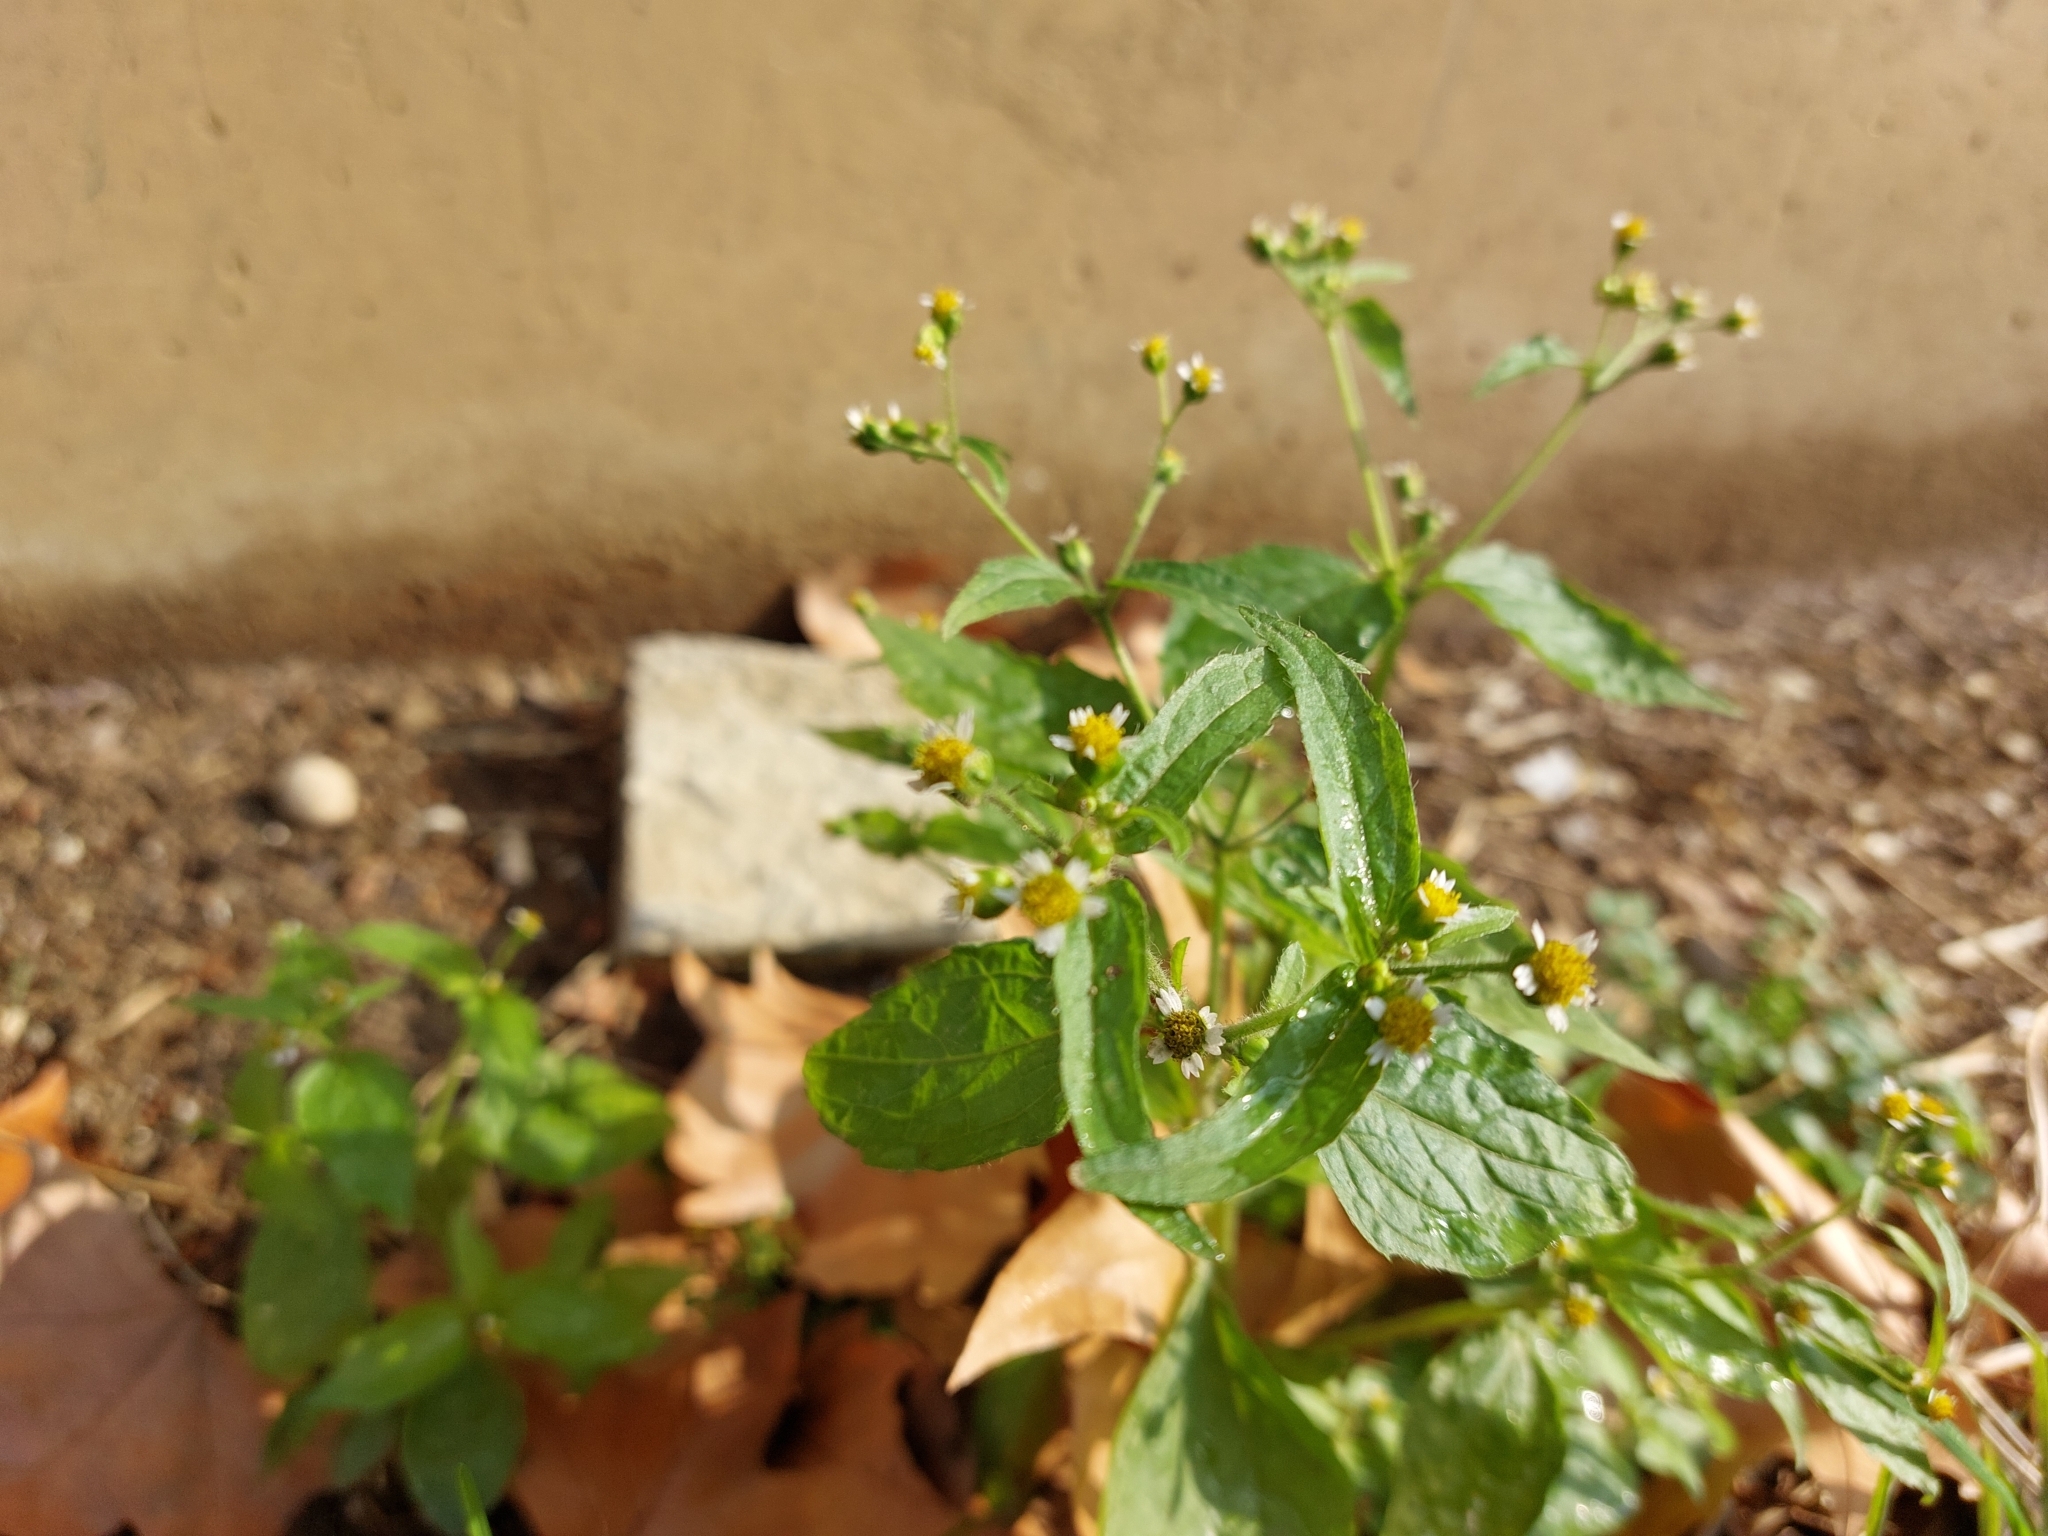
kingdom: Plantae
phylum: Tracheophyta
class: Magnoliopsida
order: Asterales
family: Asteraceae
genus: Galinsoga
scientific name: Galinsoga quadriradiata
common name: Shaggy soldier
